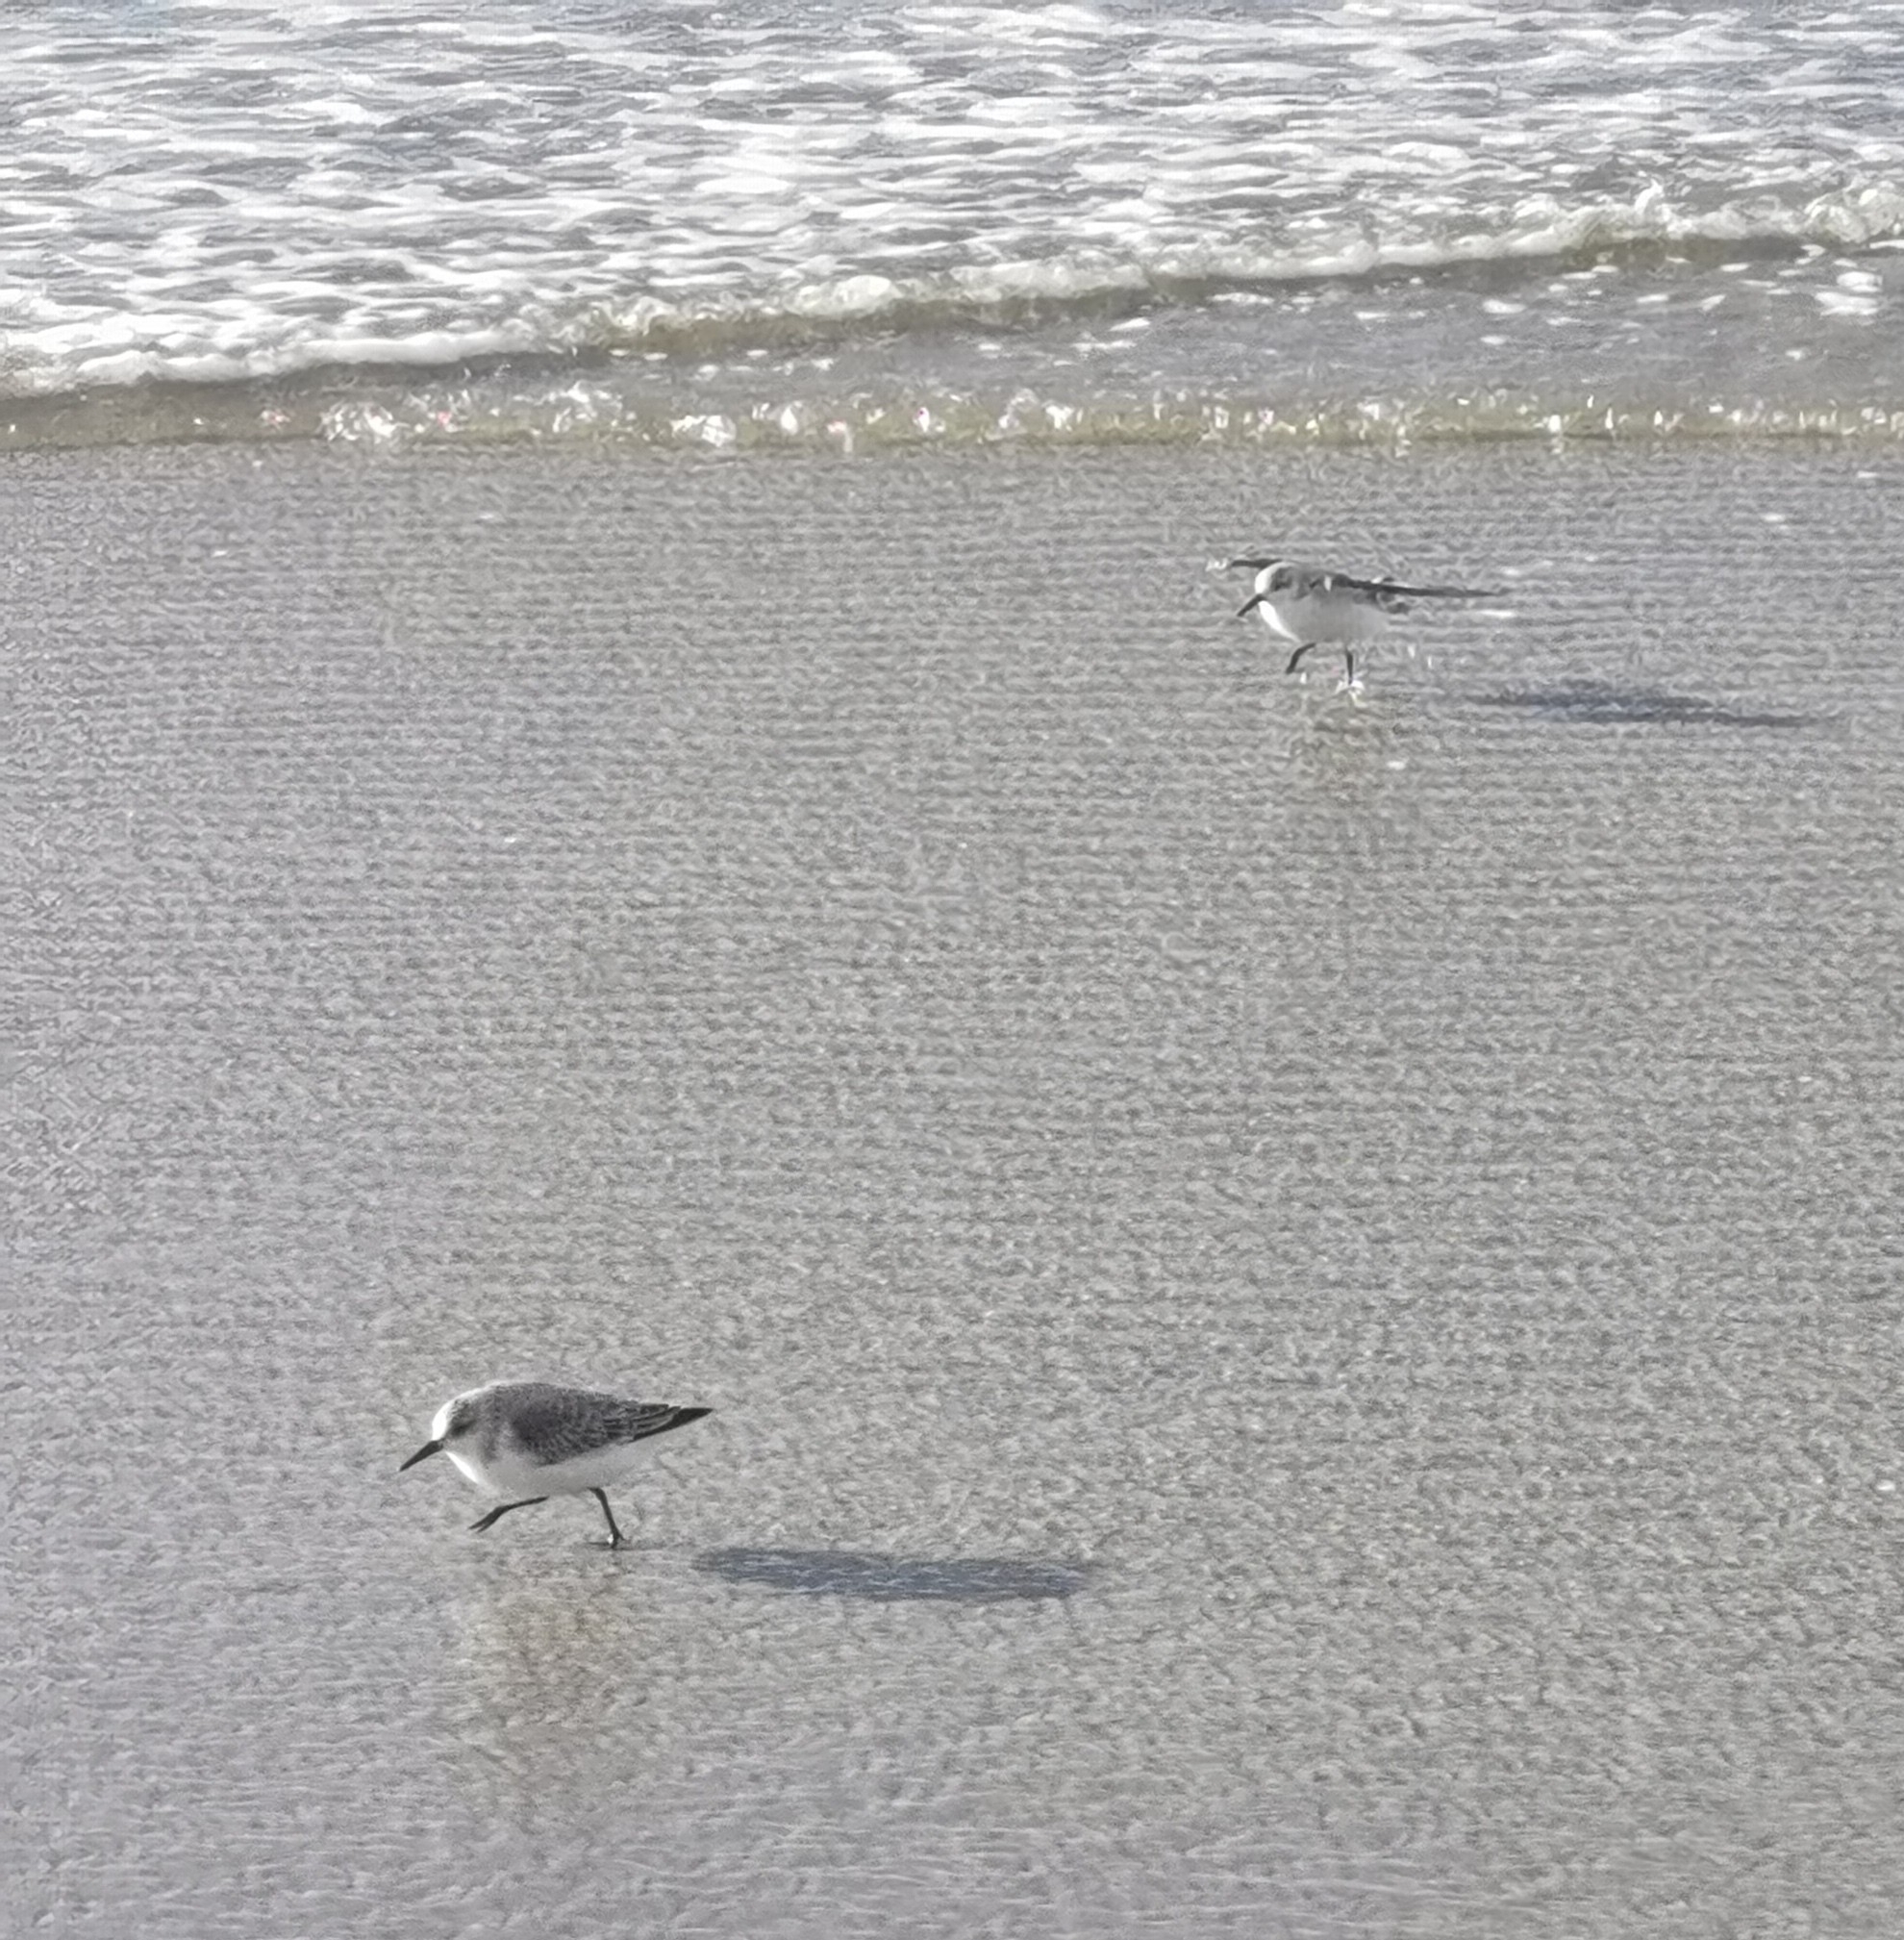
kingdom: Animalia
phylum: Chordata
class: Aves
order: Charadriiformes
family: Scolopacidae
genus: Calidris
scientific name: Calidris alba
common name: Sanderling
